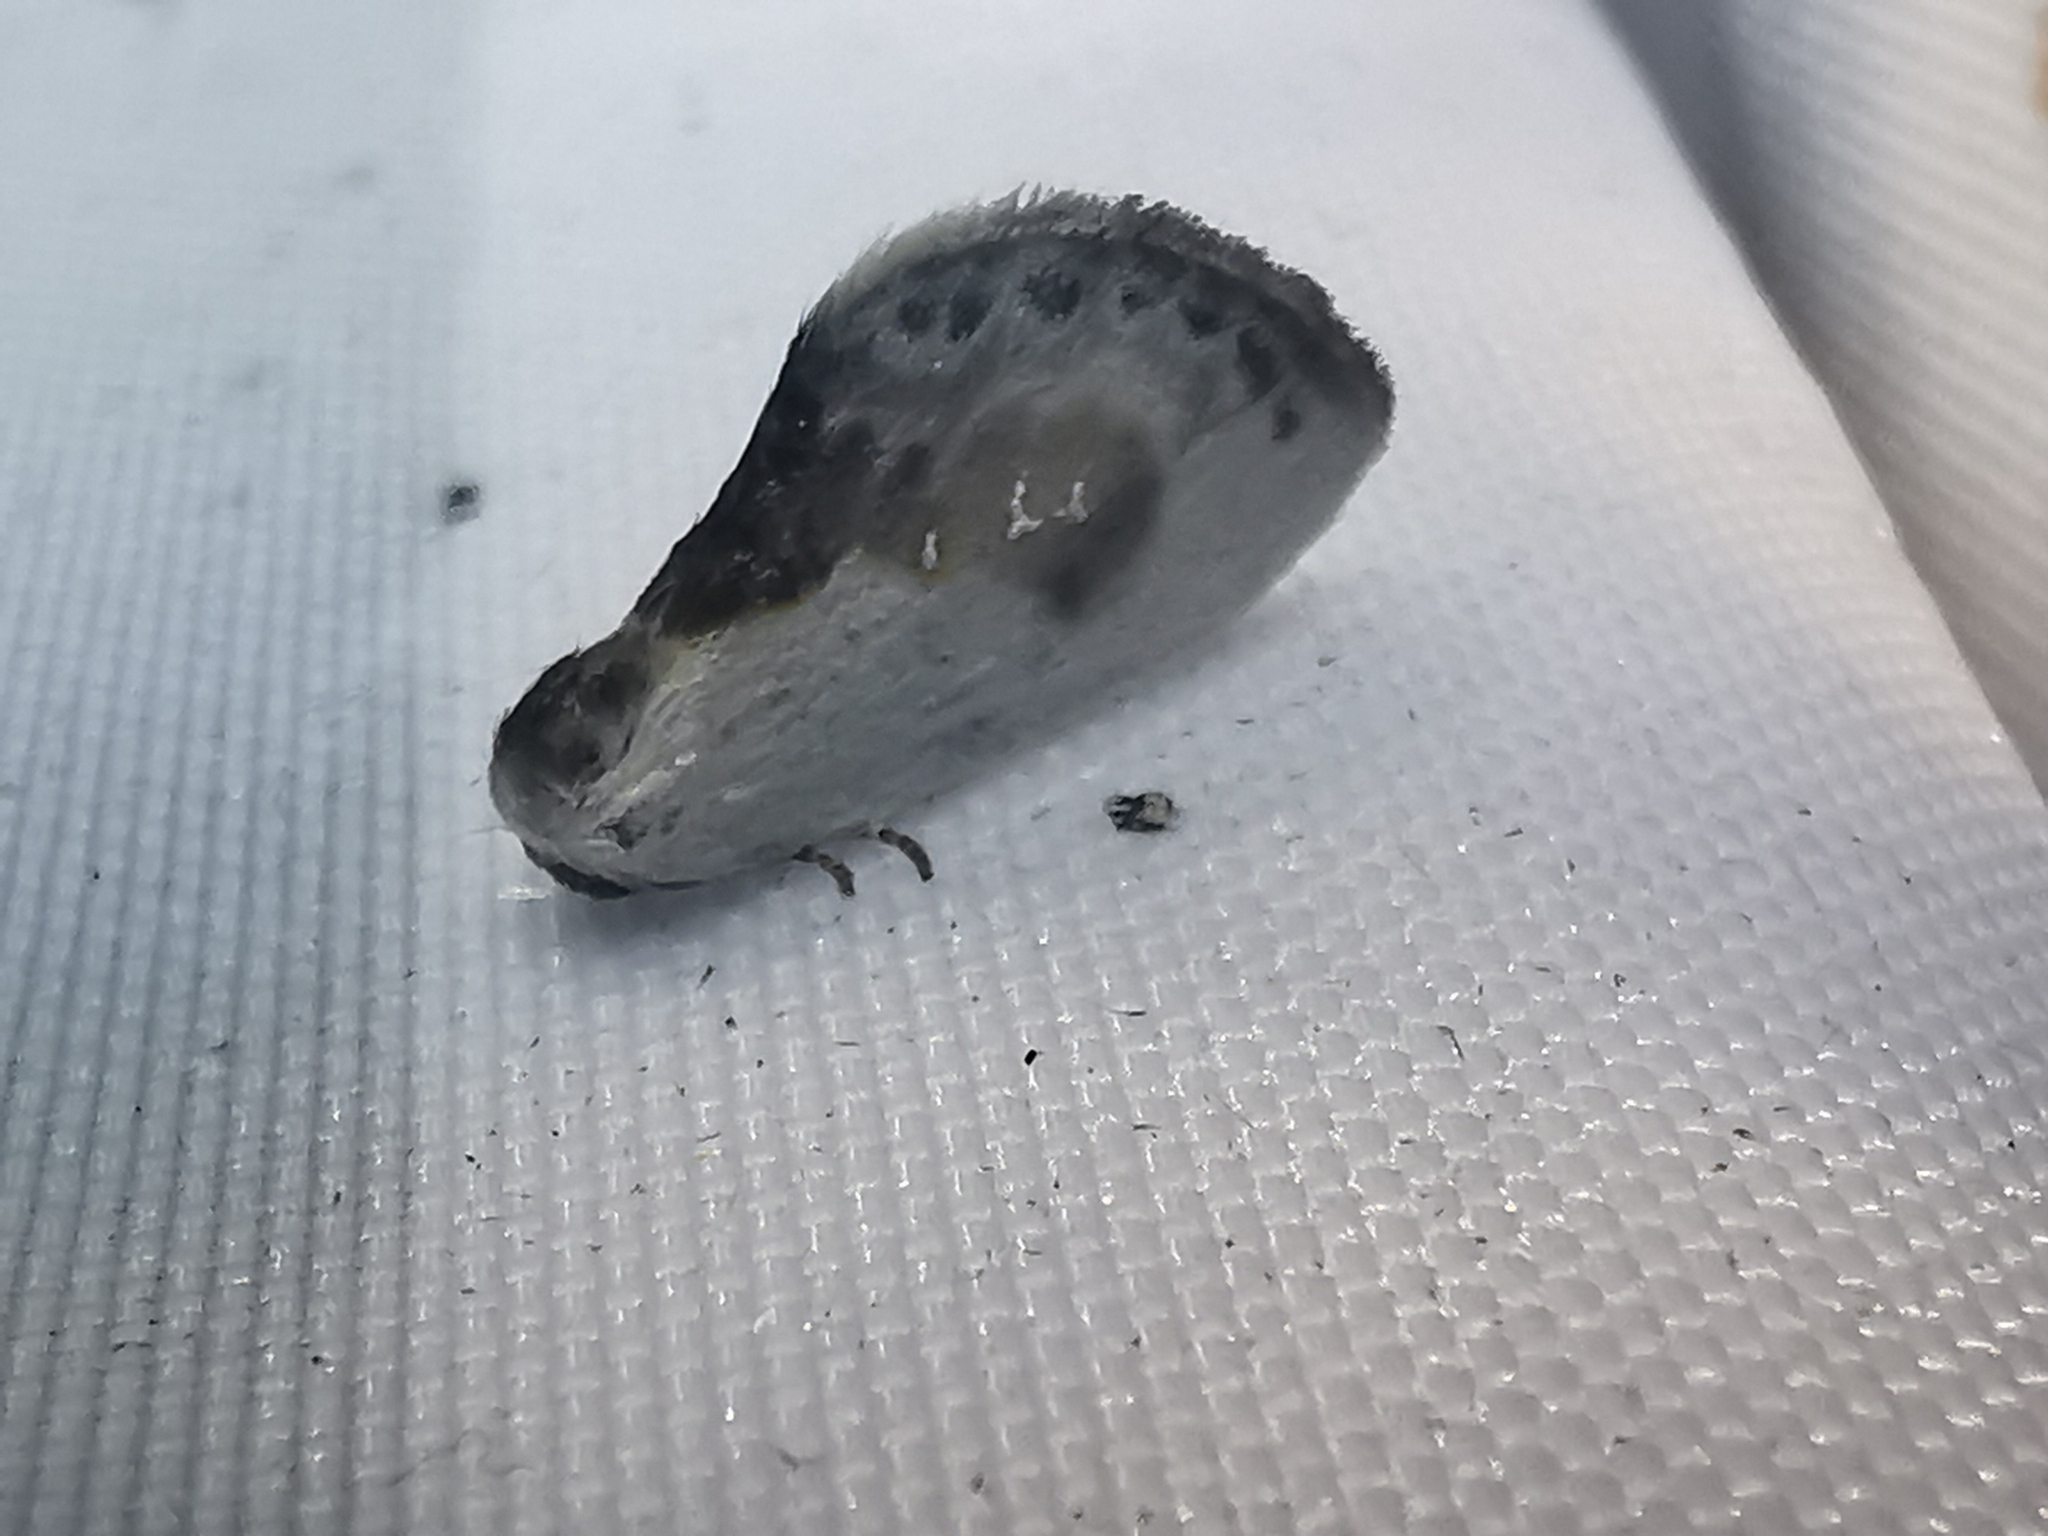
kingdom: Animalia
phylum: Arthropoda
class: Insecta
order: Lepidoptera
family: Drepanidae
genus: Cilix
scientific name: Cilix glaucata
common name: Chinese character
